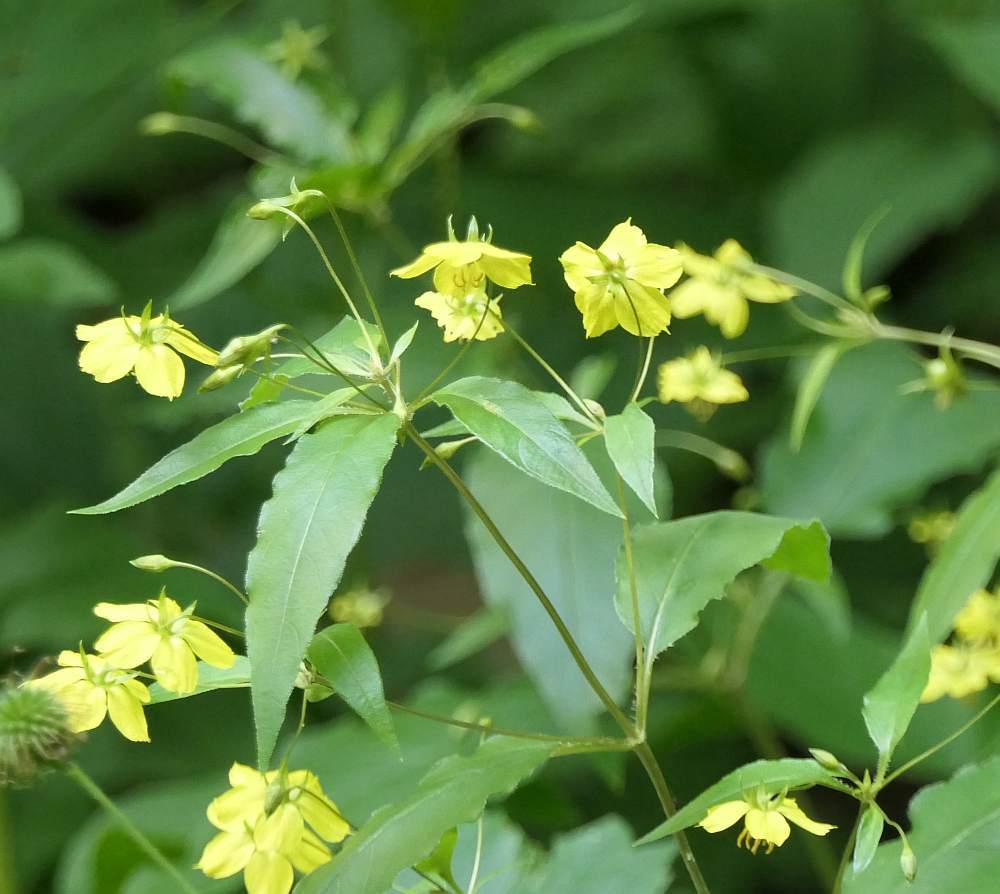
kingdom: Plantae
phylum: Tracheophyta
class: Magnoliopsida
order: Ericales
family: Primulaceae
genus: Lysimachia
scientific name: Lysimachia ciliata
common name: Fringed loosestrife
